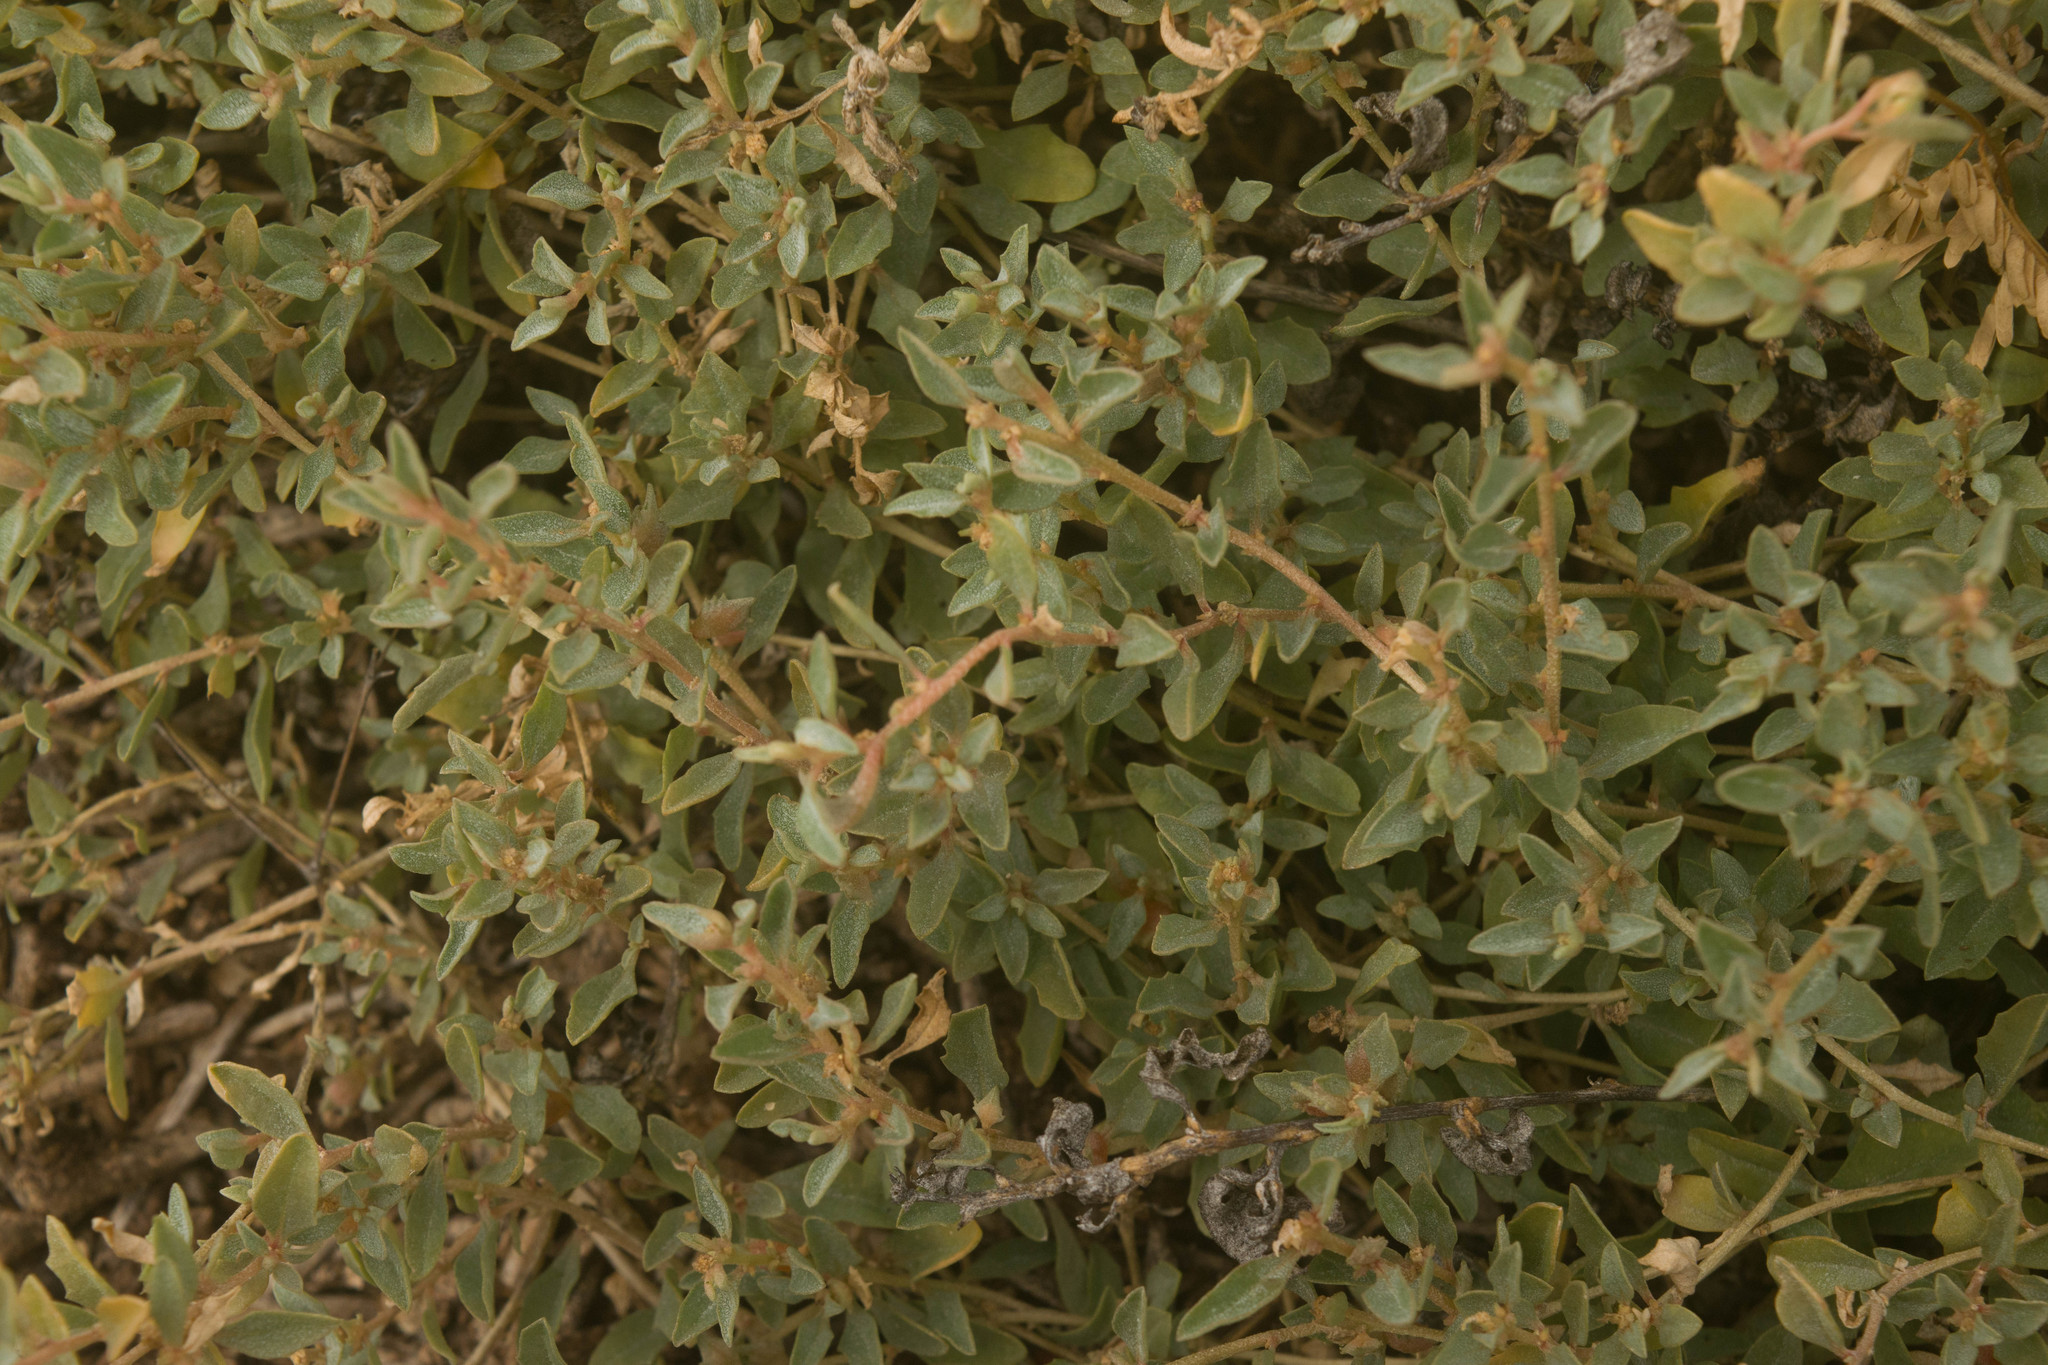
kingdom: Plantae
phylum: Tracheophyta
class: Magnoliopsida
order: Caryophyllales
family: Amaranthaceae
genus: Atriplex
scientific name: Atriplex semibaccata
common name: Australian saltbush
